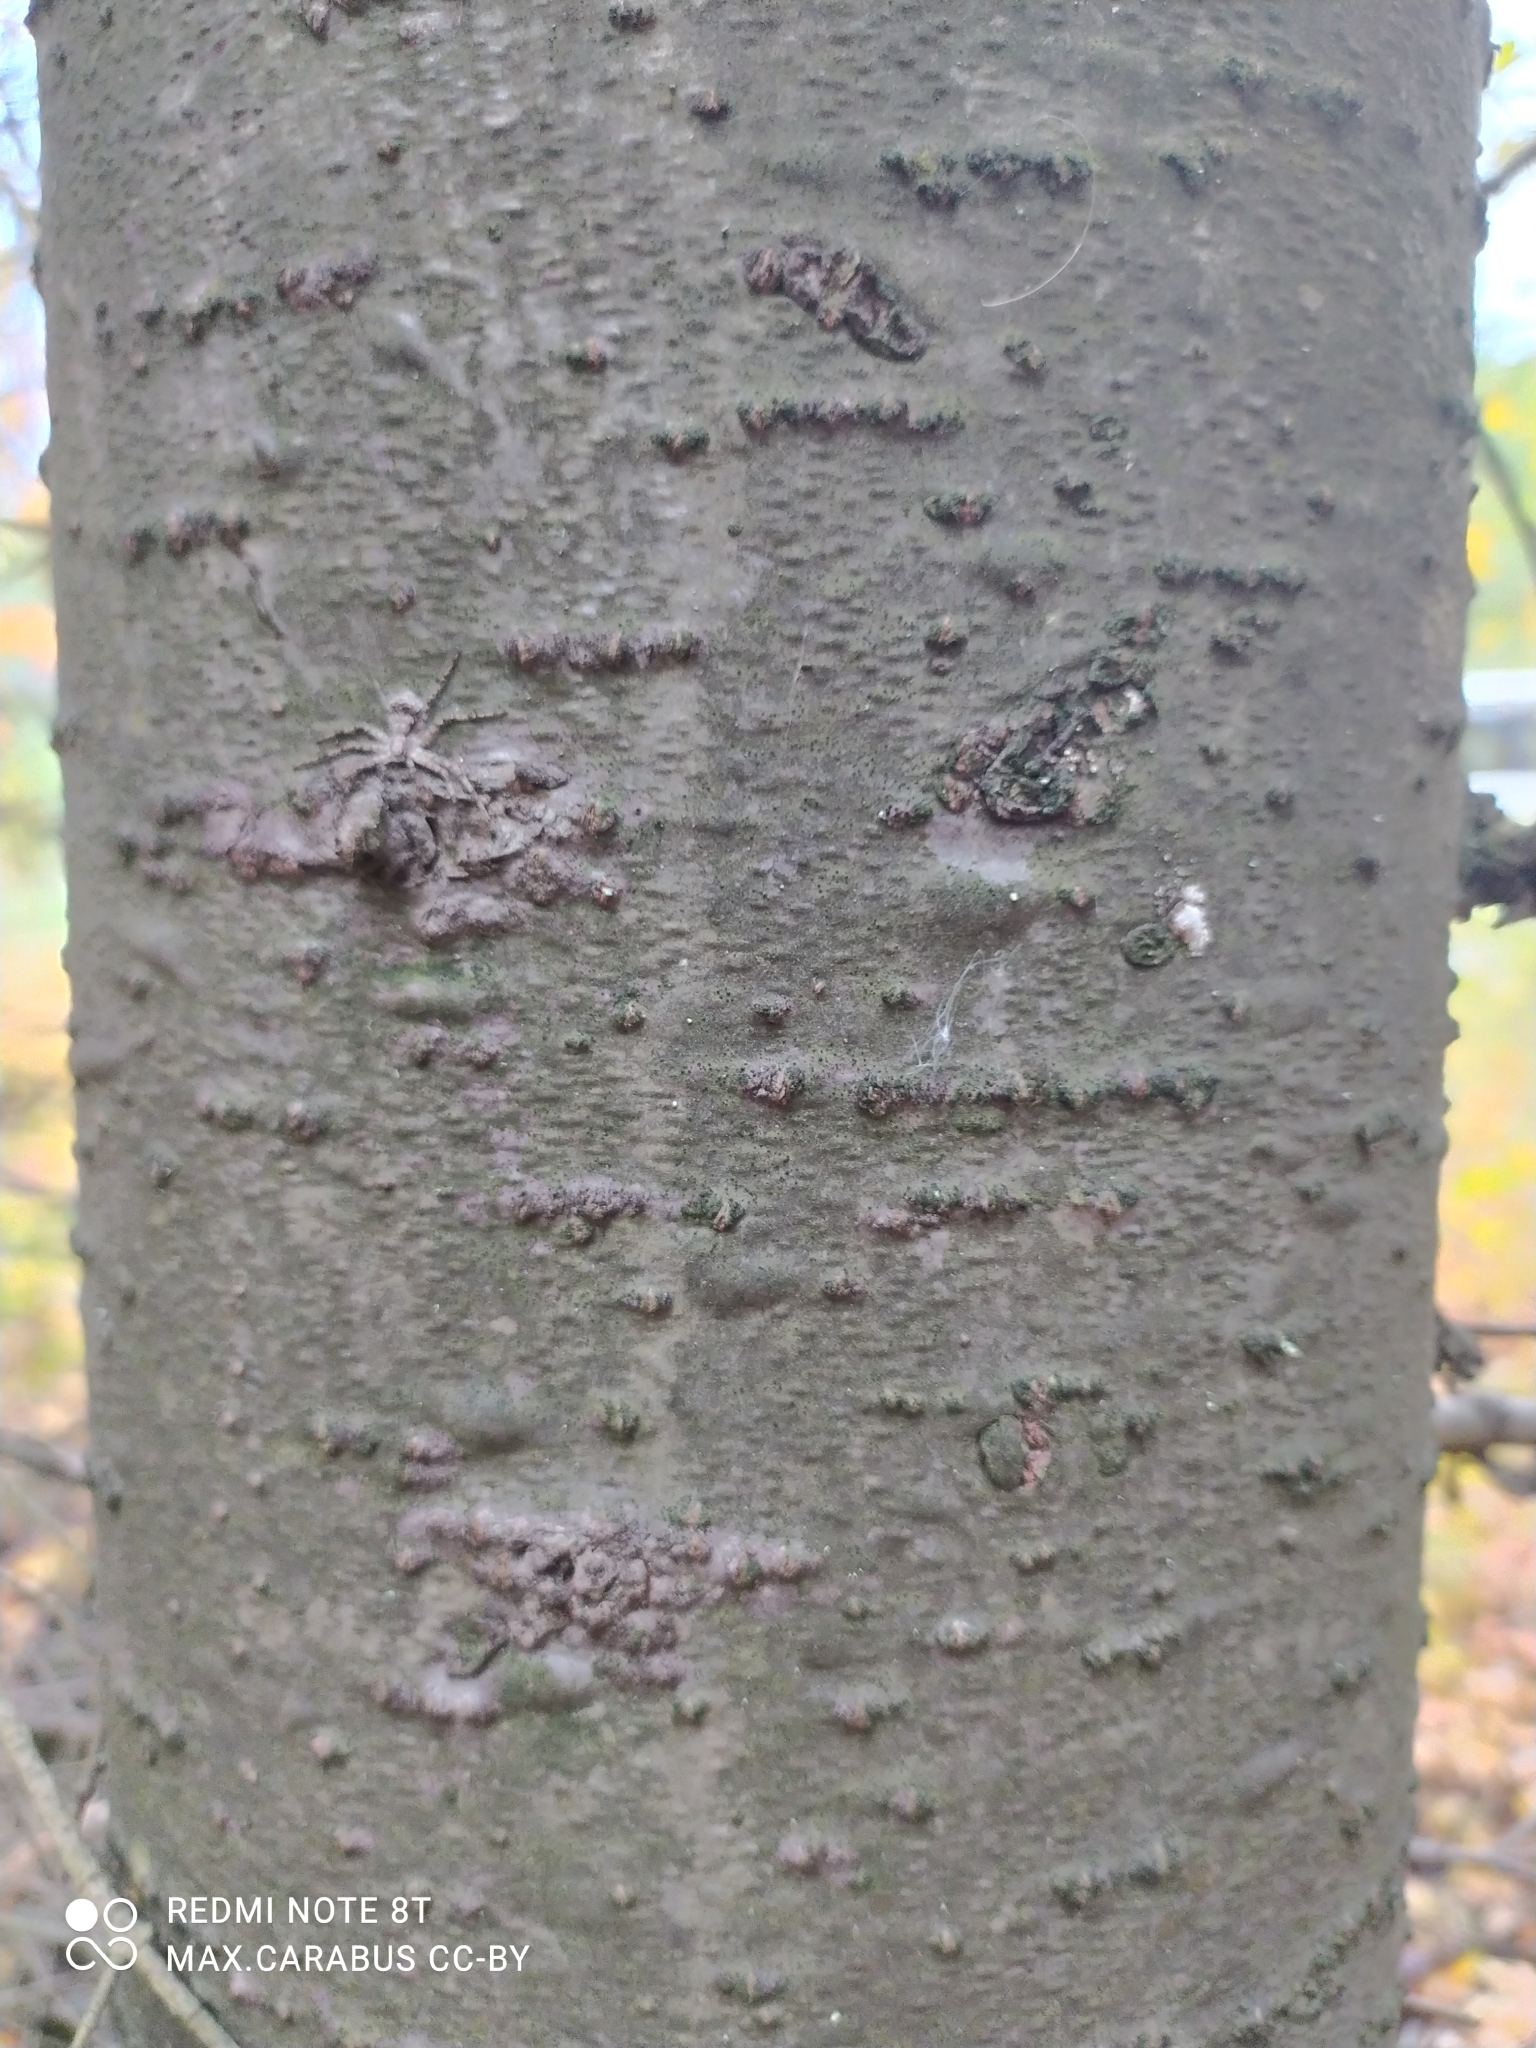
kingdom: Plantae
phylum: Tracheophyta
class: Pinopsida
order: Pinales
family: Pinaceae
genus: Abies
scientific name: Abies sibirica
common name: Siberian fir
